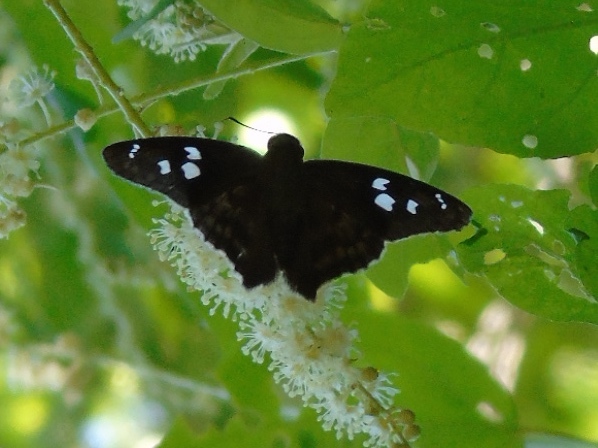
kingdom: Animalia
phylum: Arthropoda
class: Insecta
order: Lepidoptera
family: Hesperiidae
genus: Polygonus
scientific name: Polygonus leo
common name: Hammoch skipper
